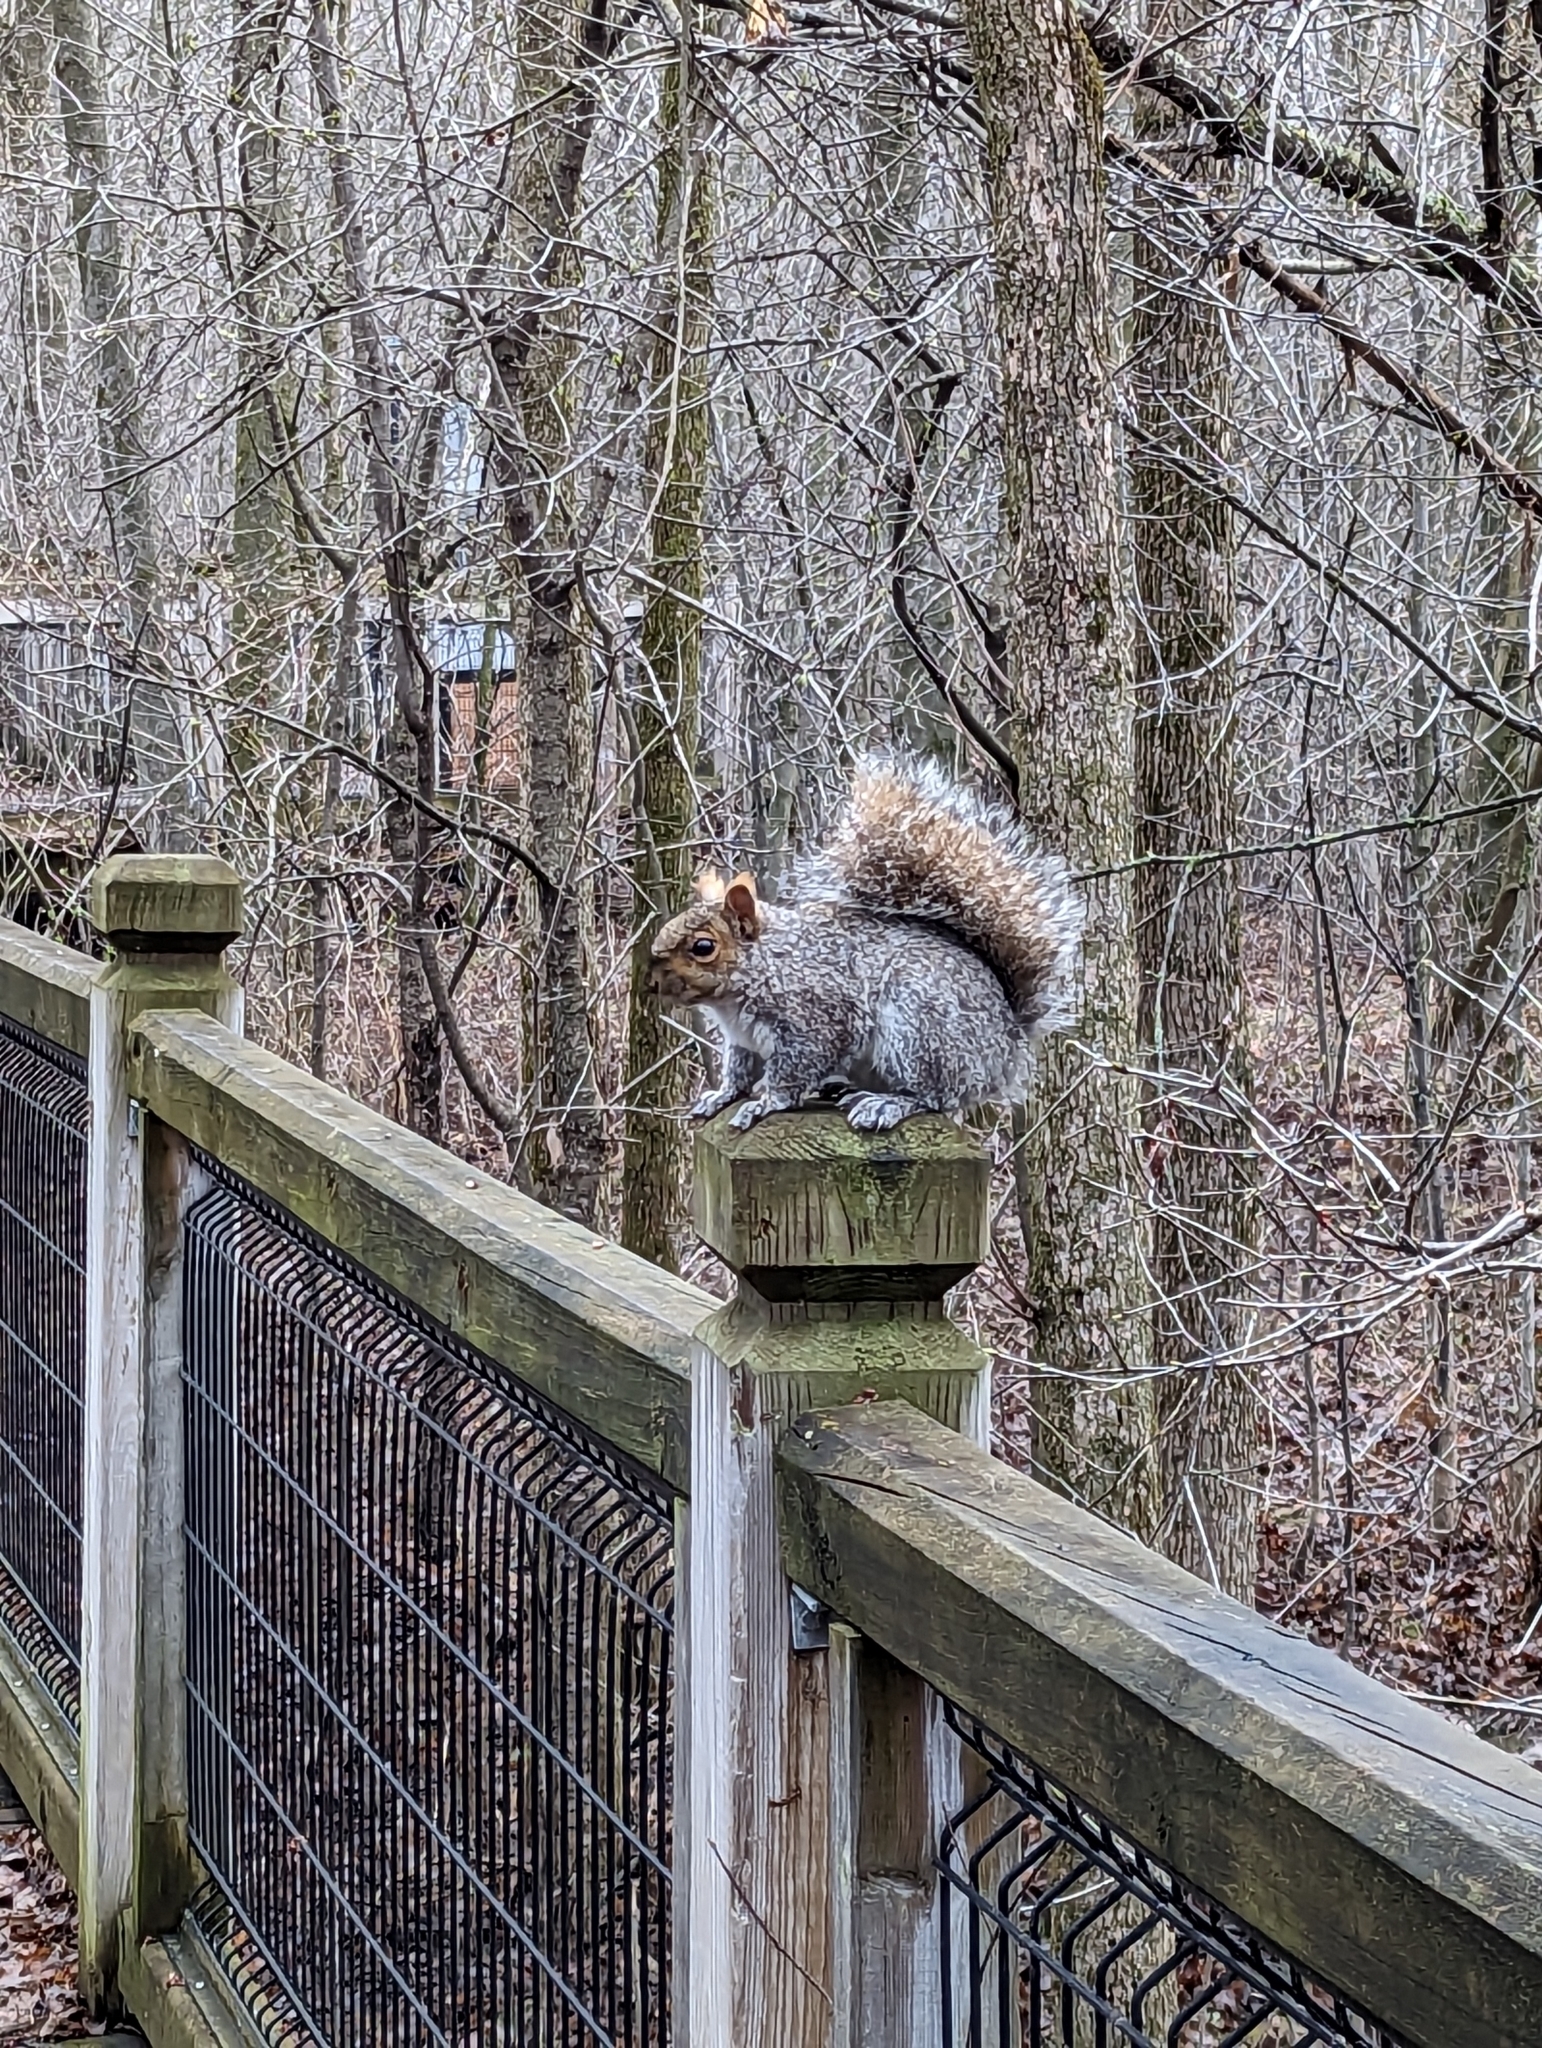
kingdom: Animalia
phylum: Chordata
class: Mammalia
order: Rodentia
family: Sciuridae
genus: Sciurus
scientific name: Sciurus carolinensis
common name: Eastern gray squirrel
